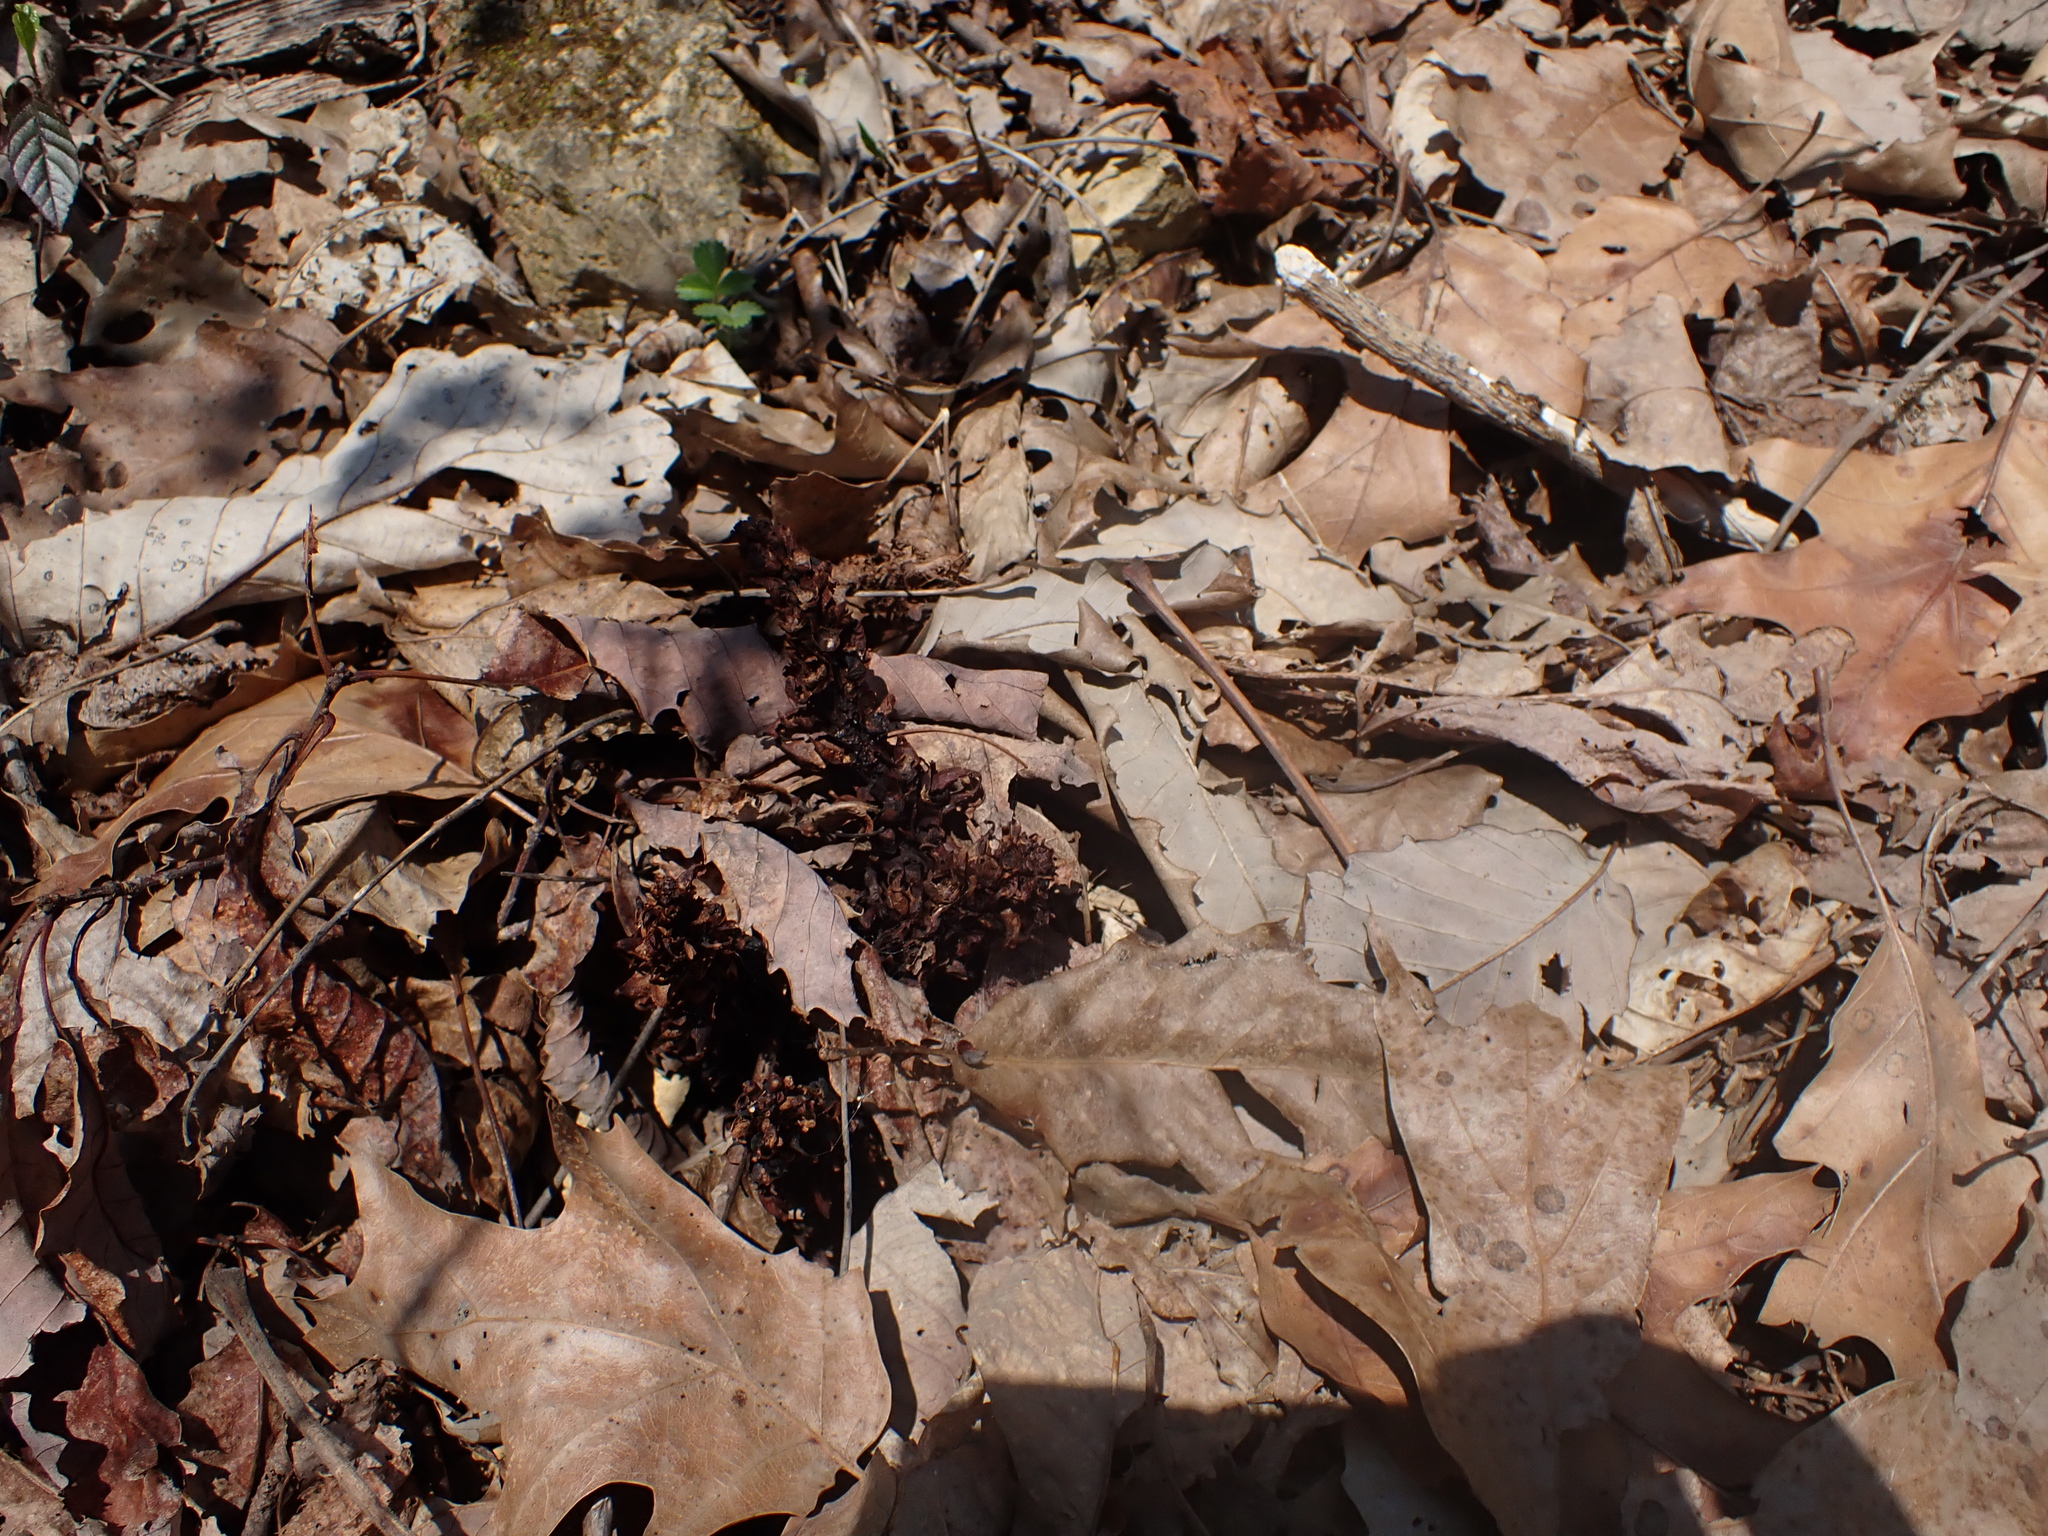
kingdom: Plantae
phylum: Tracheophyta
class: Magnoliopsida
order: Lamiales
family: Orobanchaceae
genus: Conopholis
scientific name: Conopholis americana
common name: American cancer-root
